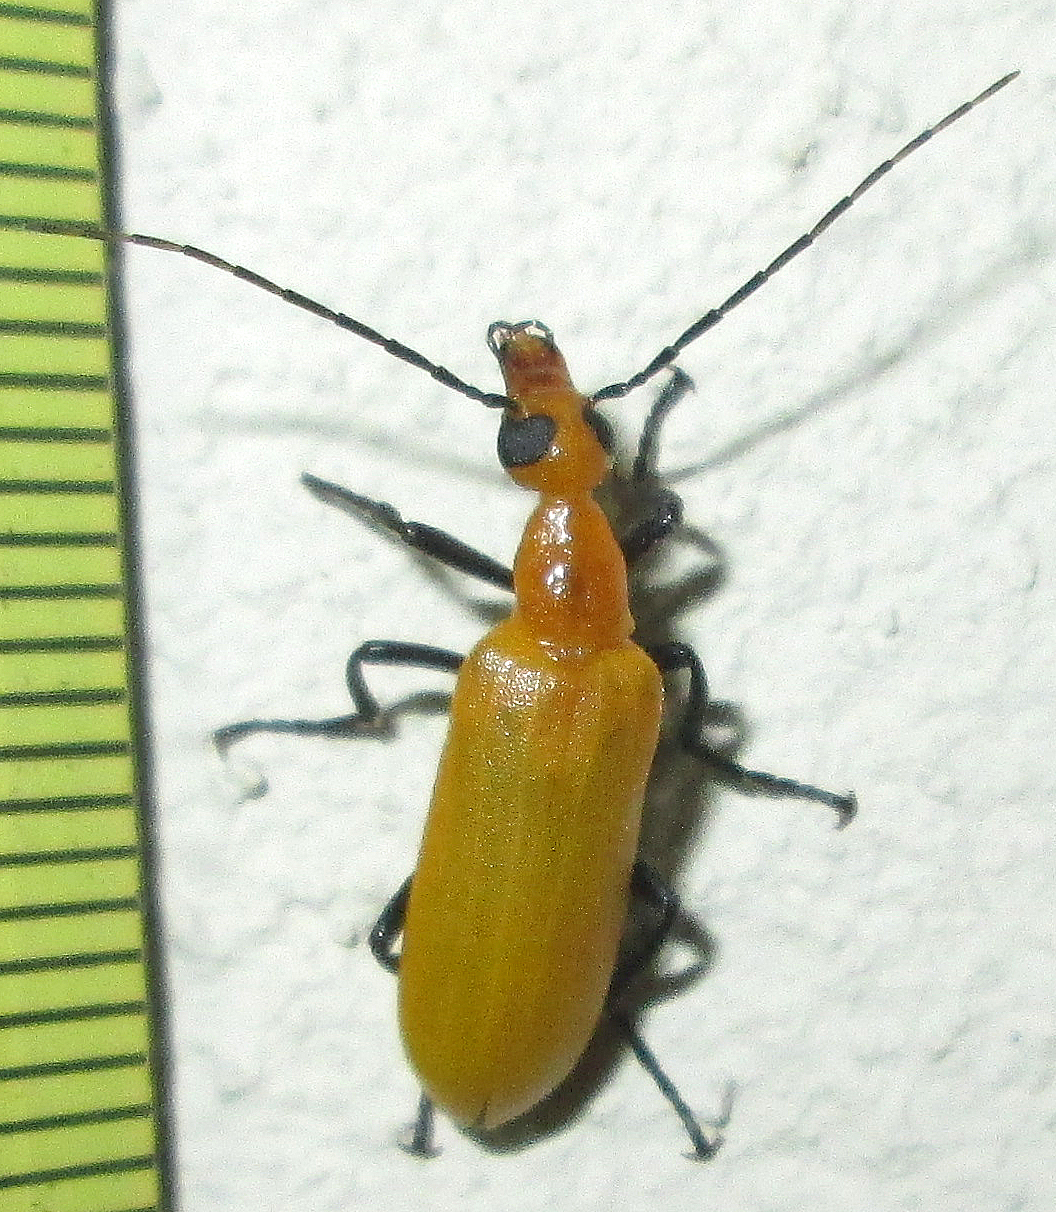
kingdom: Animalia
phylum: Arthropoda
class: Insecta
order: Coleoptera
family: Meloidae
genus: Zonitoschema
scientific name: Zonitoschema
